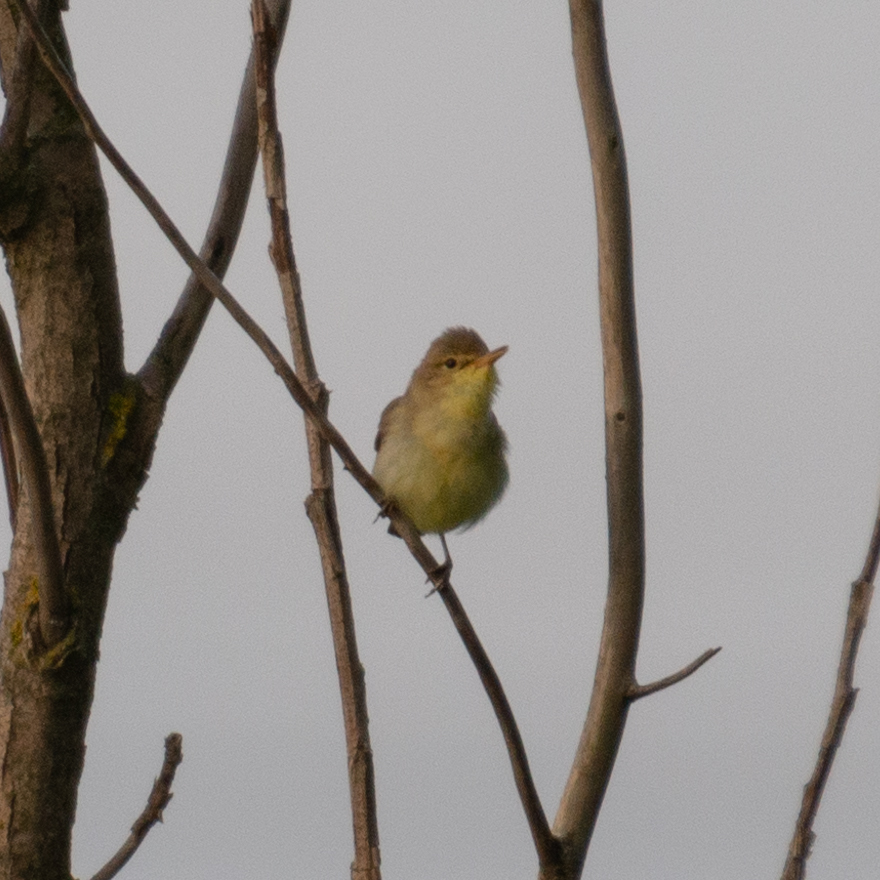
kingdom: Animalia
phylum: Chordata
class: Aves
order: Passeriformes
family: Acrocephalidae
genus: Hippolais
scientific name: Hippolais polyglotta
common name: Melodious warbler
